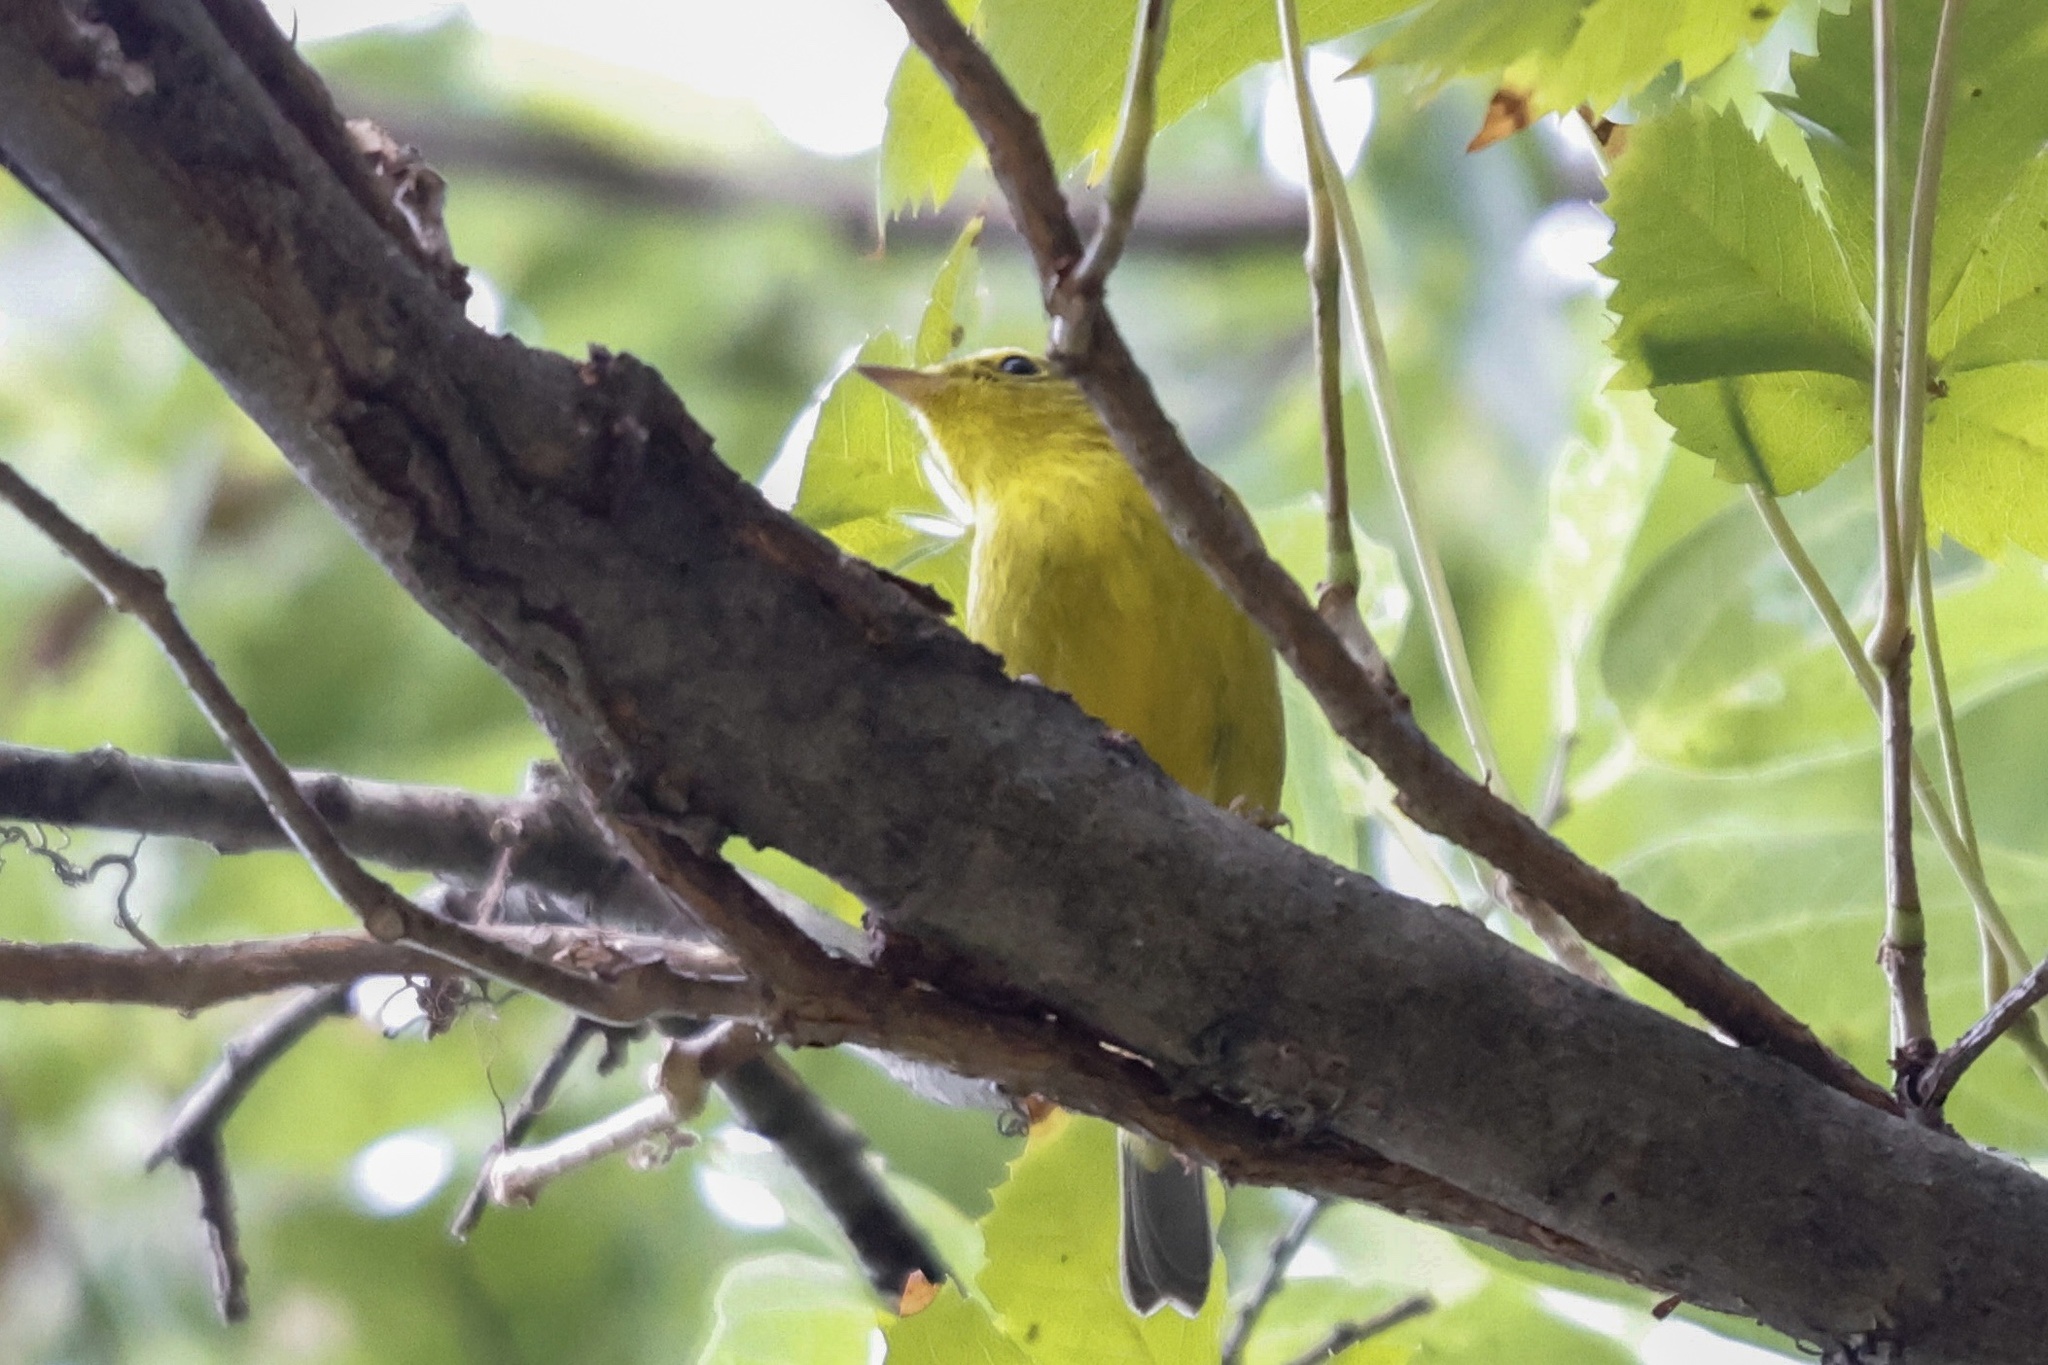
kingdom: Animalia
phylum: Chordata
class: Aves
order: Passeriformes
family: Parulidae
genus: Cardellina
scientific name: Cardellina pusilla
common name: Wilson's warbler
